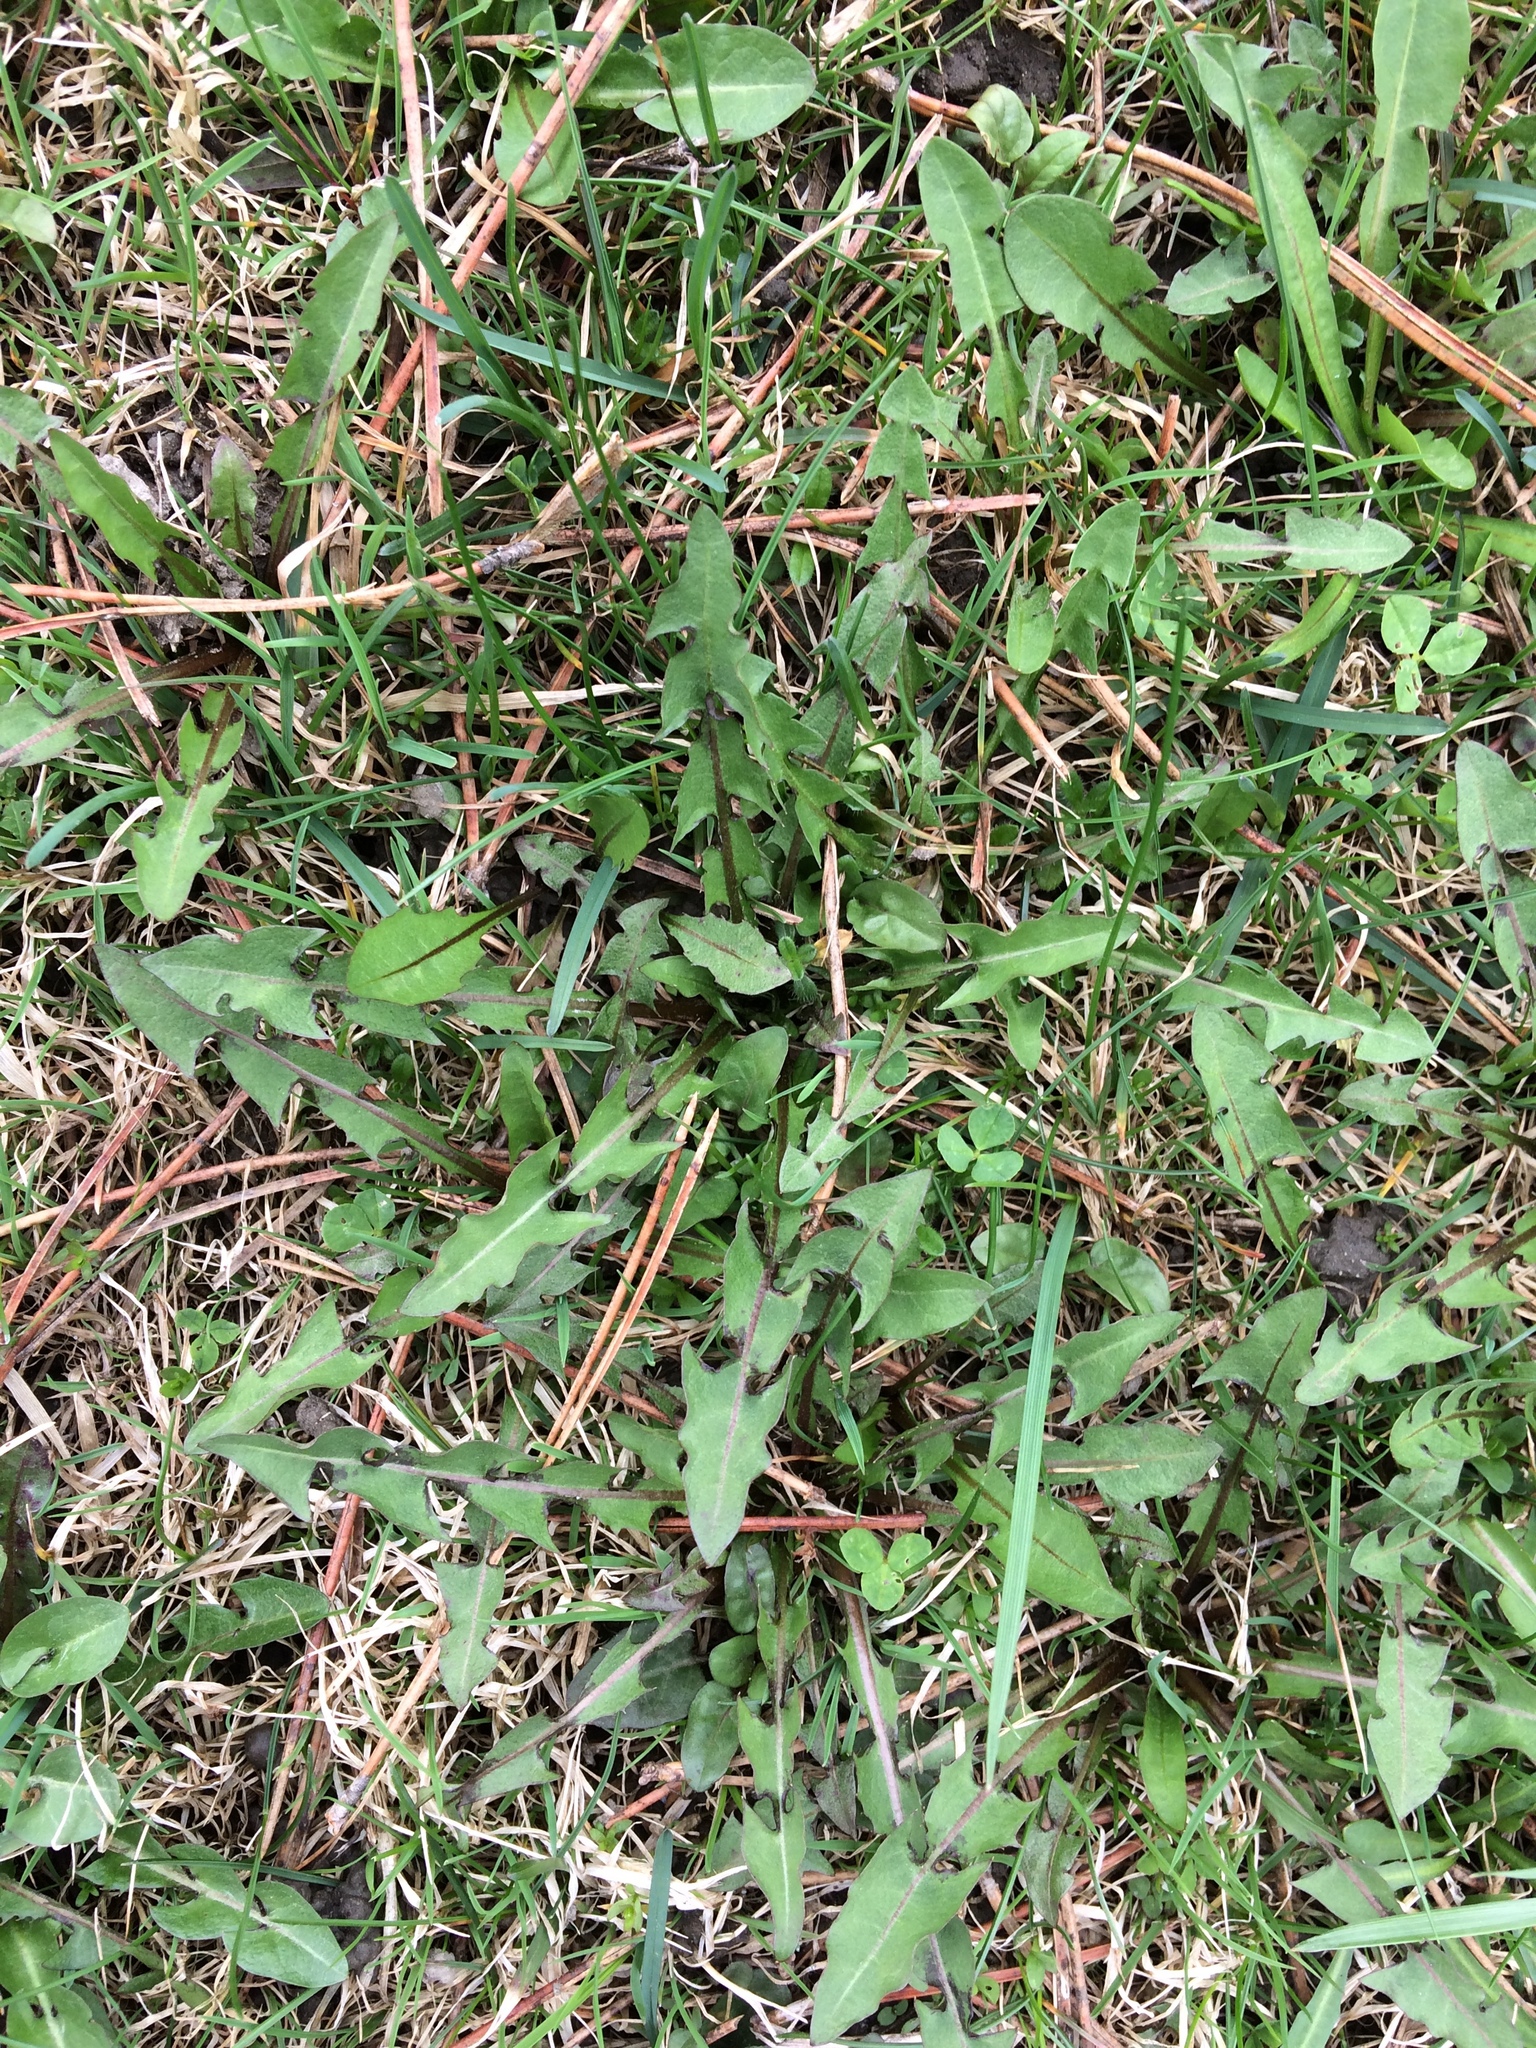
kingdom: Plantae
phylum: Tracheophyta
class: Magnoliopsida
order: Asterales
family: Asteraceae
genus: Taraxacum
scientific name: Taraxacum officinale
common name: Common dandelion
